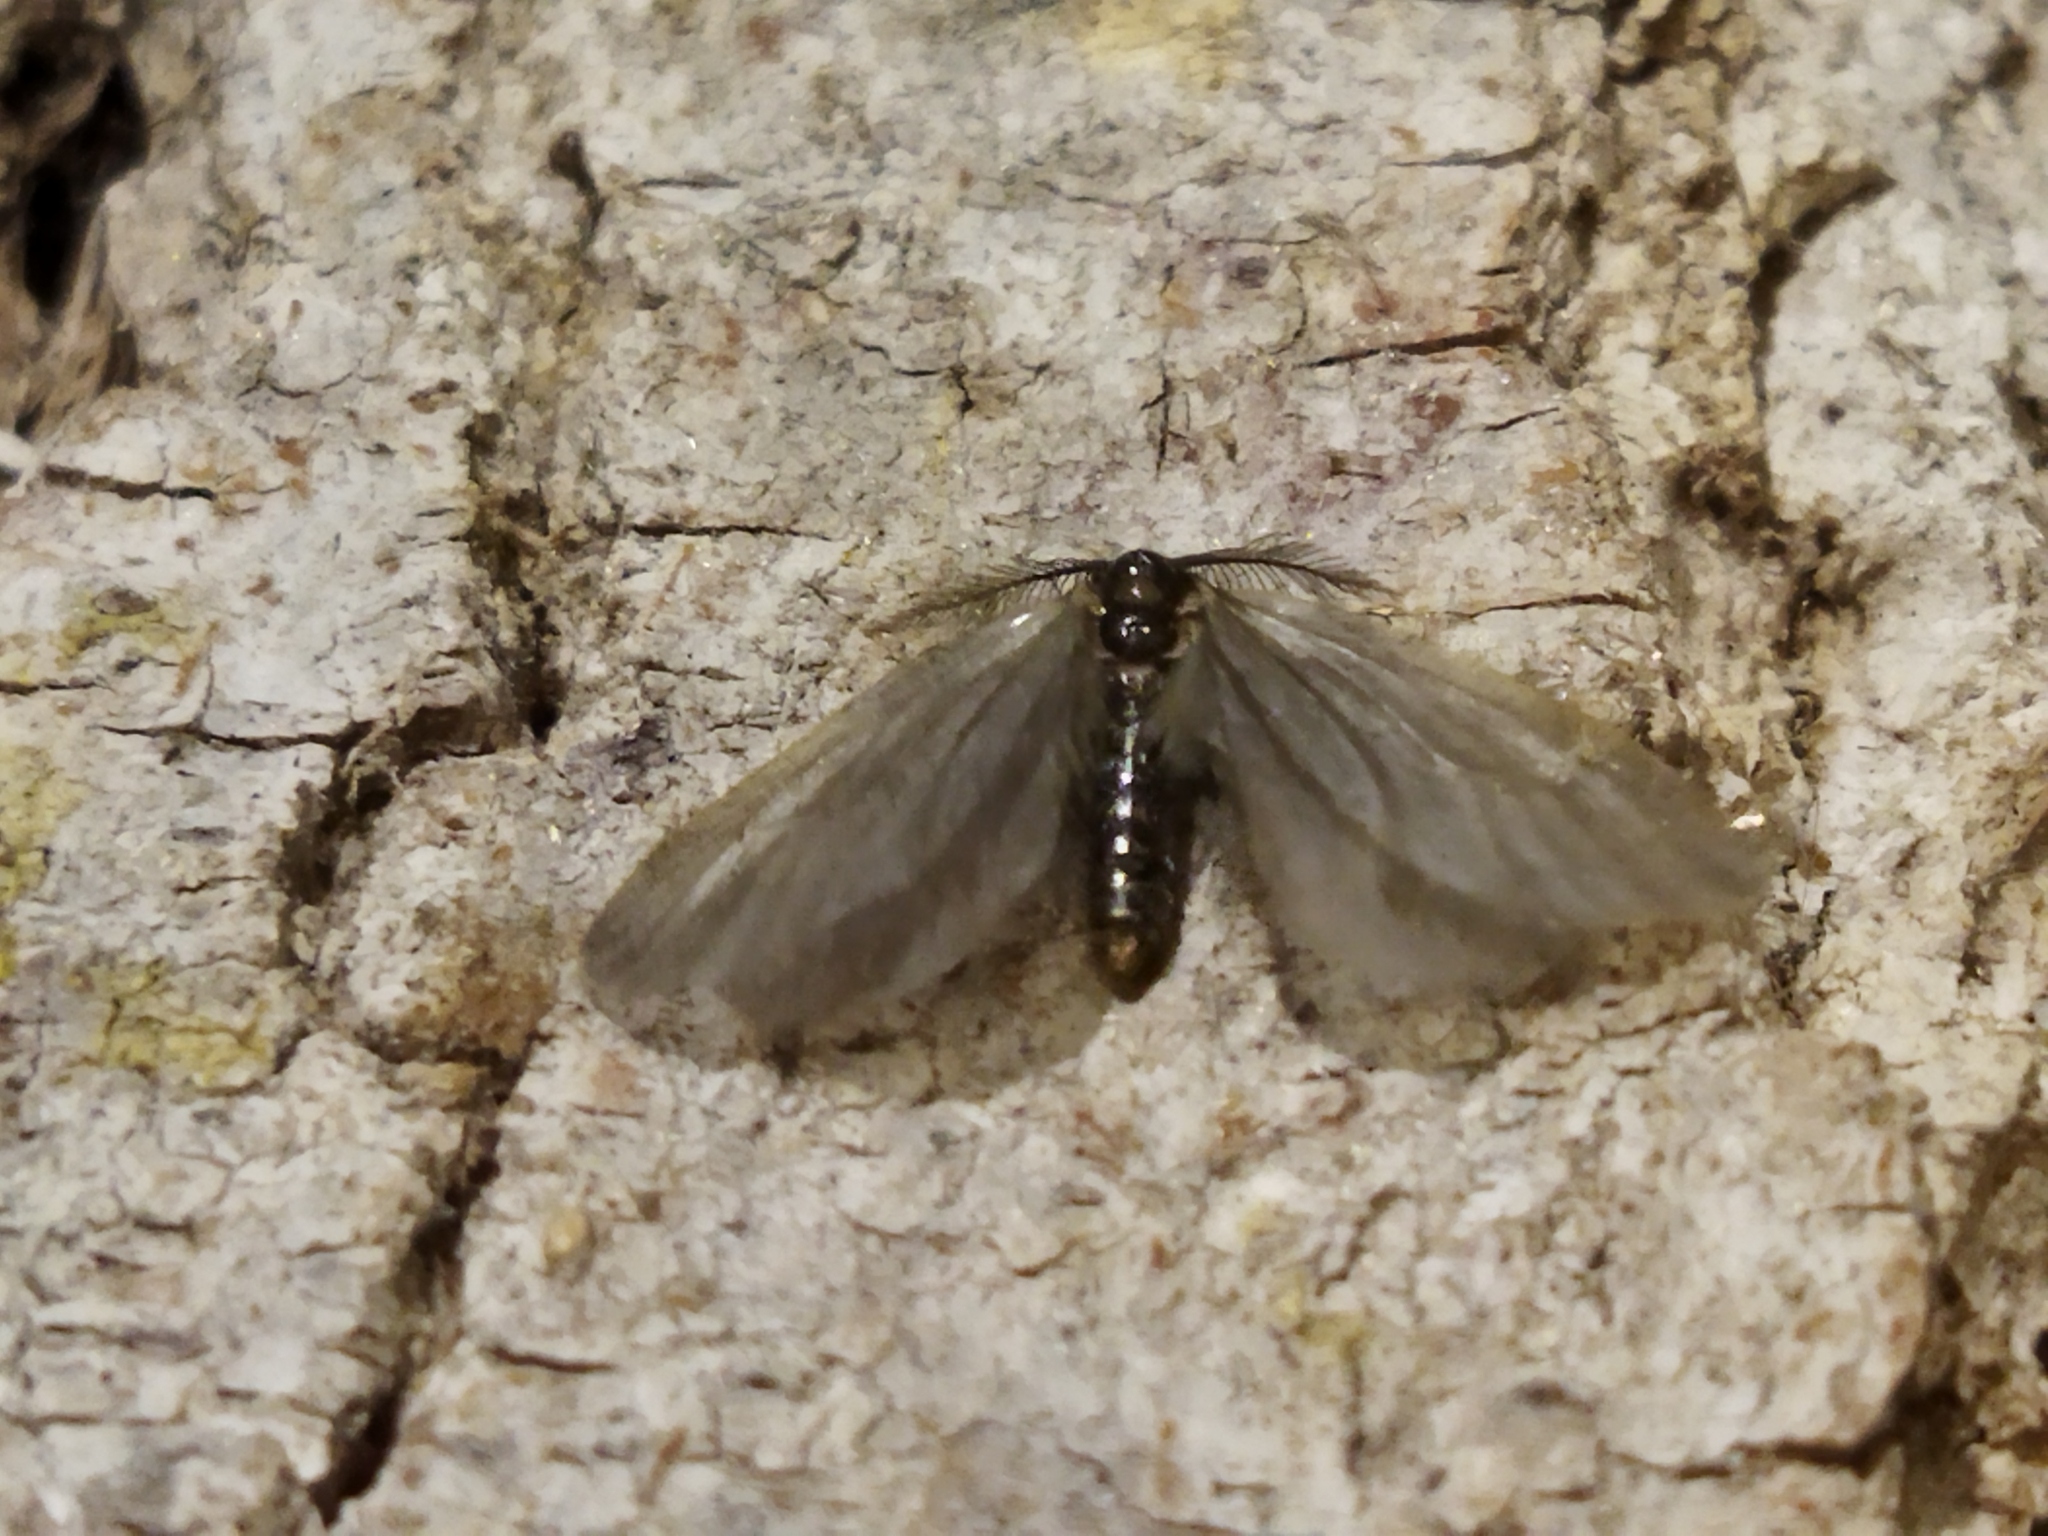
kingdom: Animalia
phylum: Arthropoda
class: Insecta
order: Lepidoptera
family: Psychidae
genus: Rebelia
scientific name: Rebelia perlucidella
